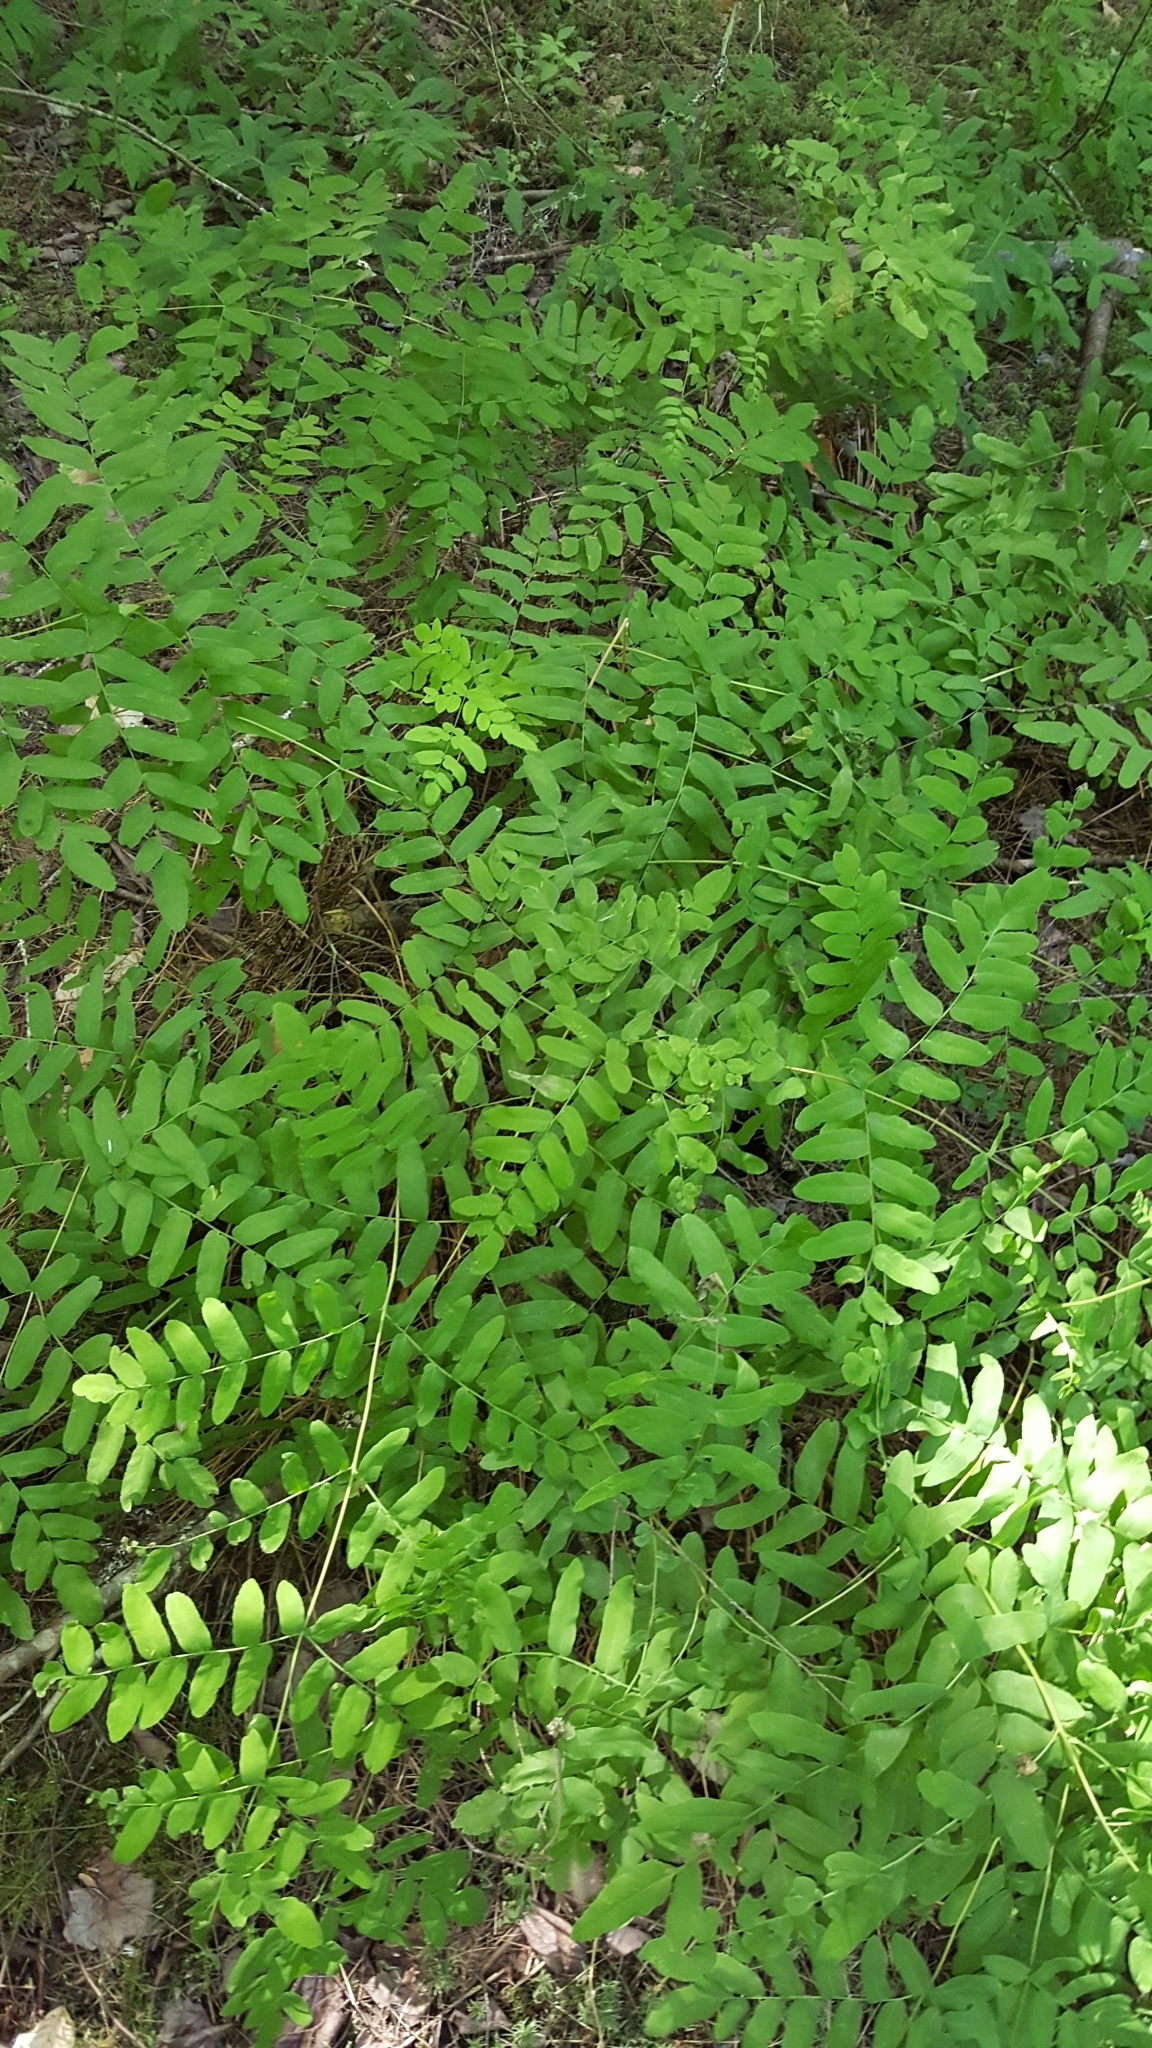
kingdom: Plantae
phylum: Tracheophyta
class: Polypodiopsida
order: Osmundales
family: Osmundaceae
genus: Osmunda
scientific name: Osmunda spectabilis
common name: American royal fern
